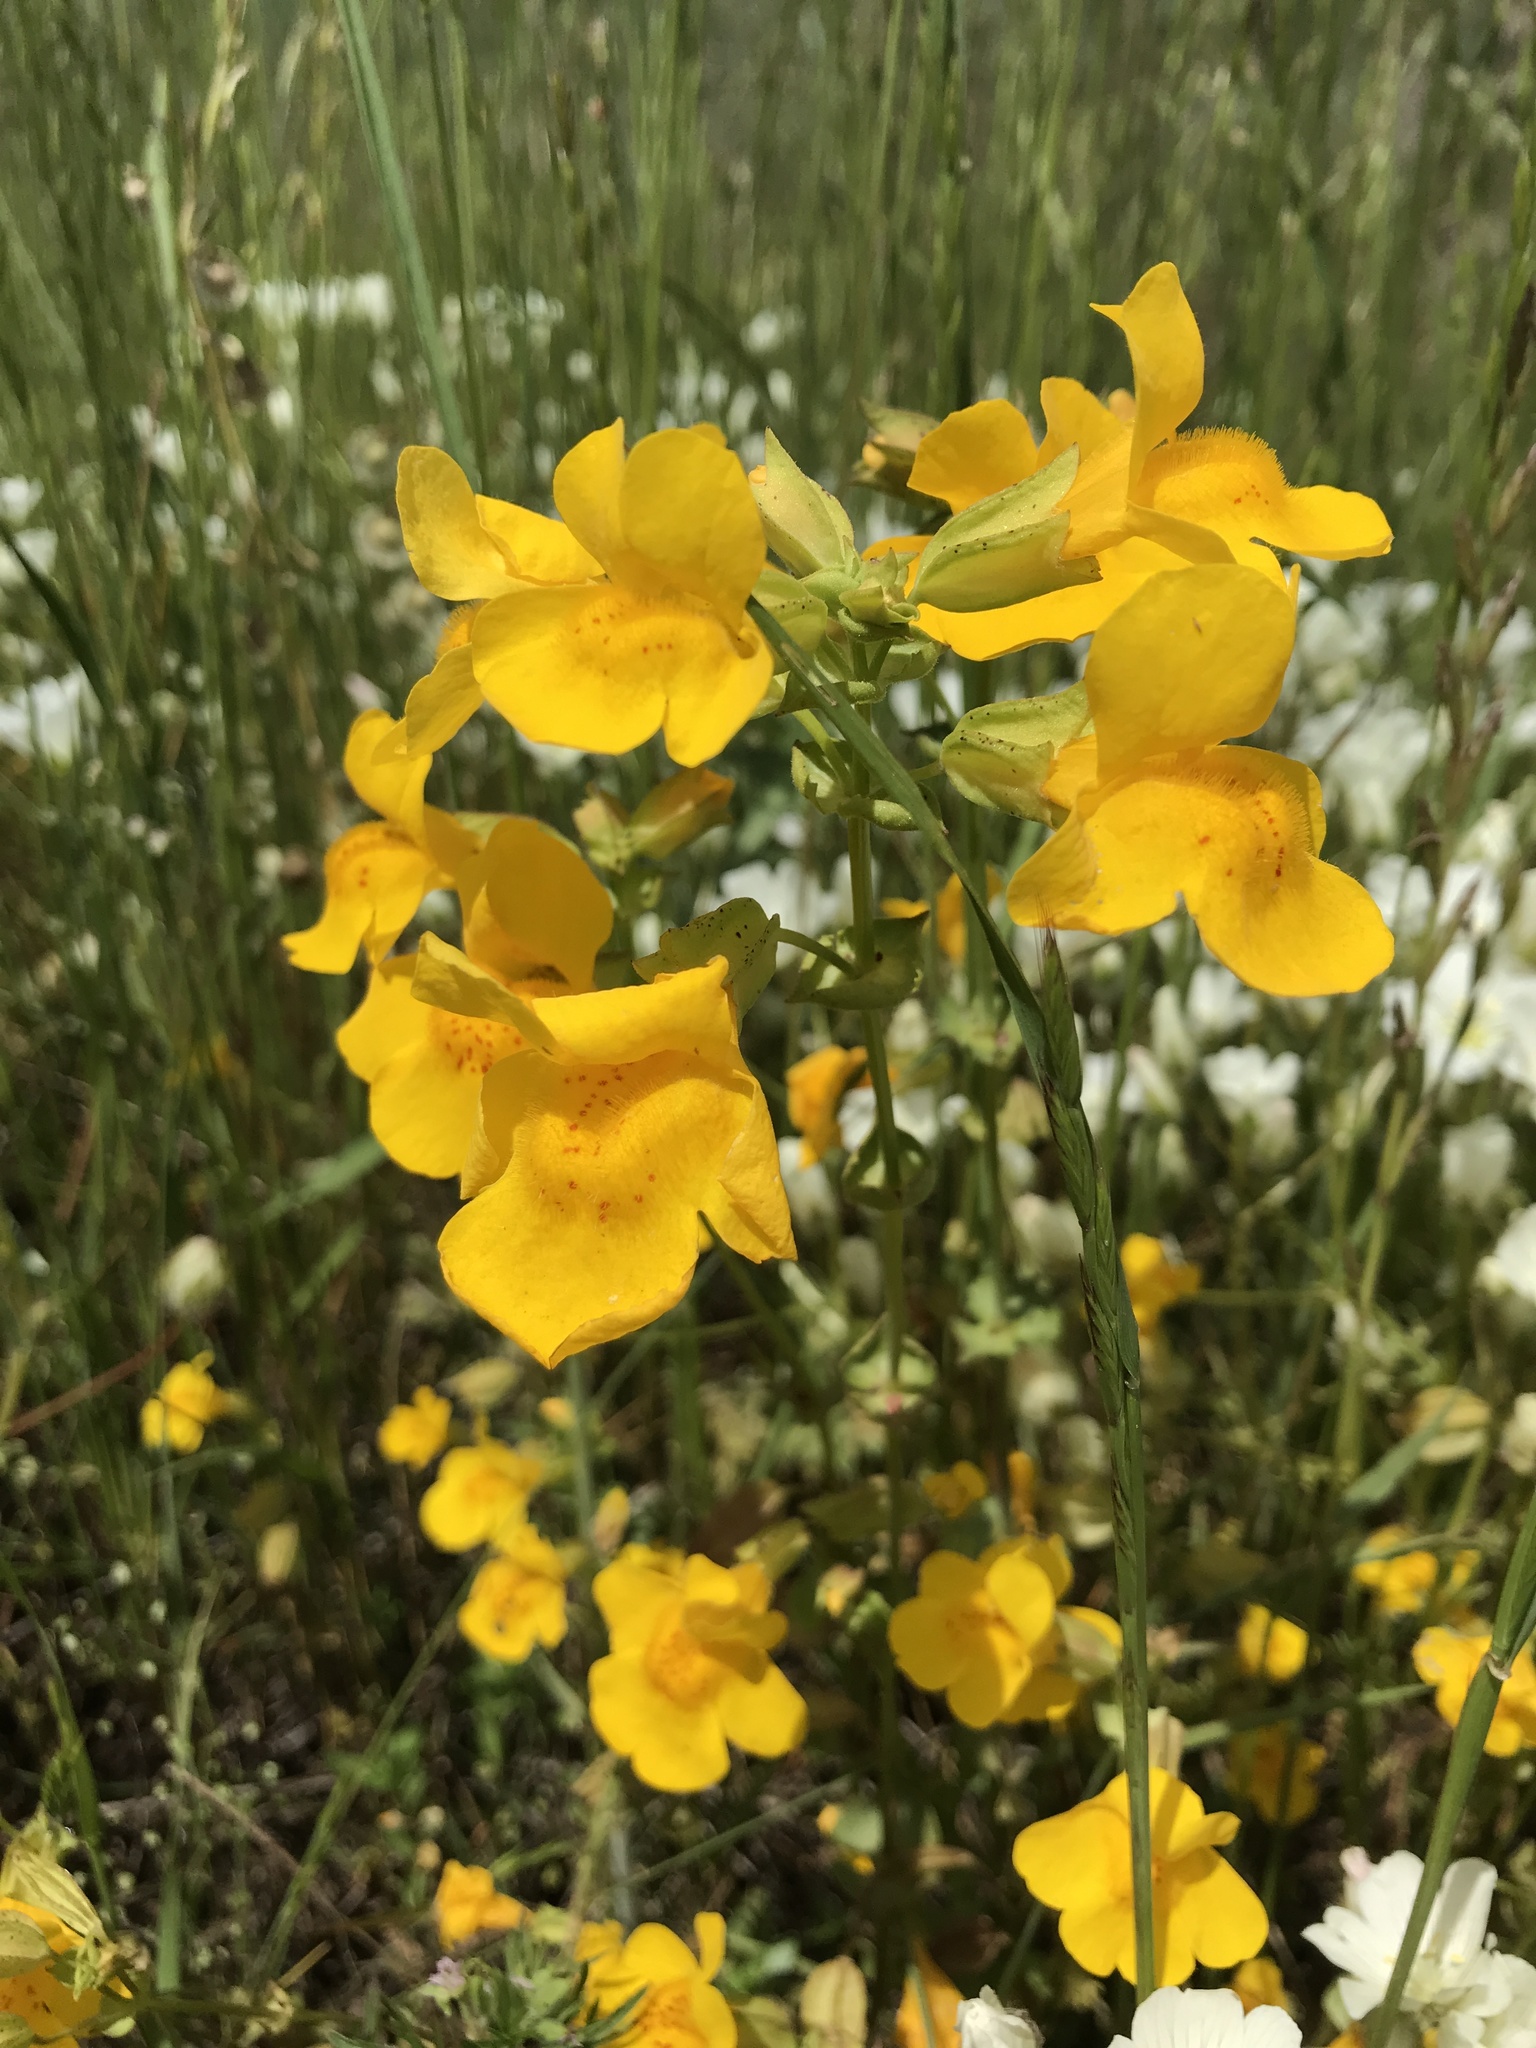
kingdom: Plantae
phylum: Tracheophyta
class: Magnoliopsida
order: Lamiales
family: Phrymaceae
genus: Erythranthe
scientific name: Erythranthe guttata
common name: Monkeyflower
